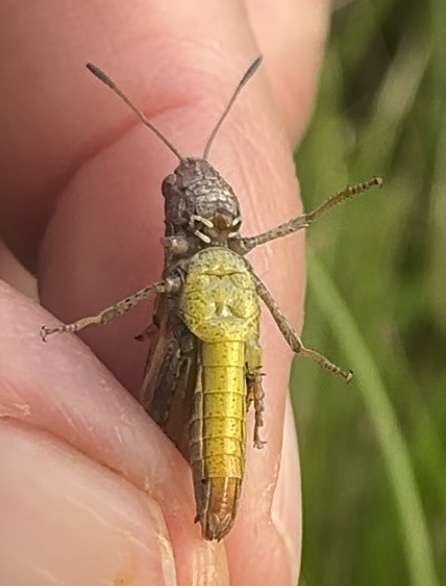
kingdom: Animalia
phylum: Arthropoda
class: Insecta
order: Orthoptera
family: Acrididae
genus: Gomphocerippus
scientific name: Gomphocerippus rufus
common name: Rufous grasshopper
